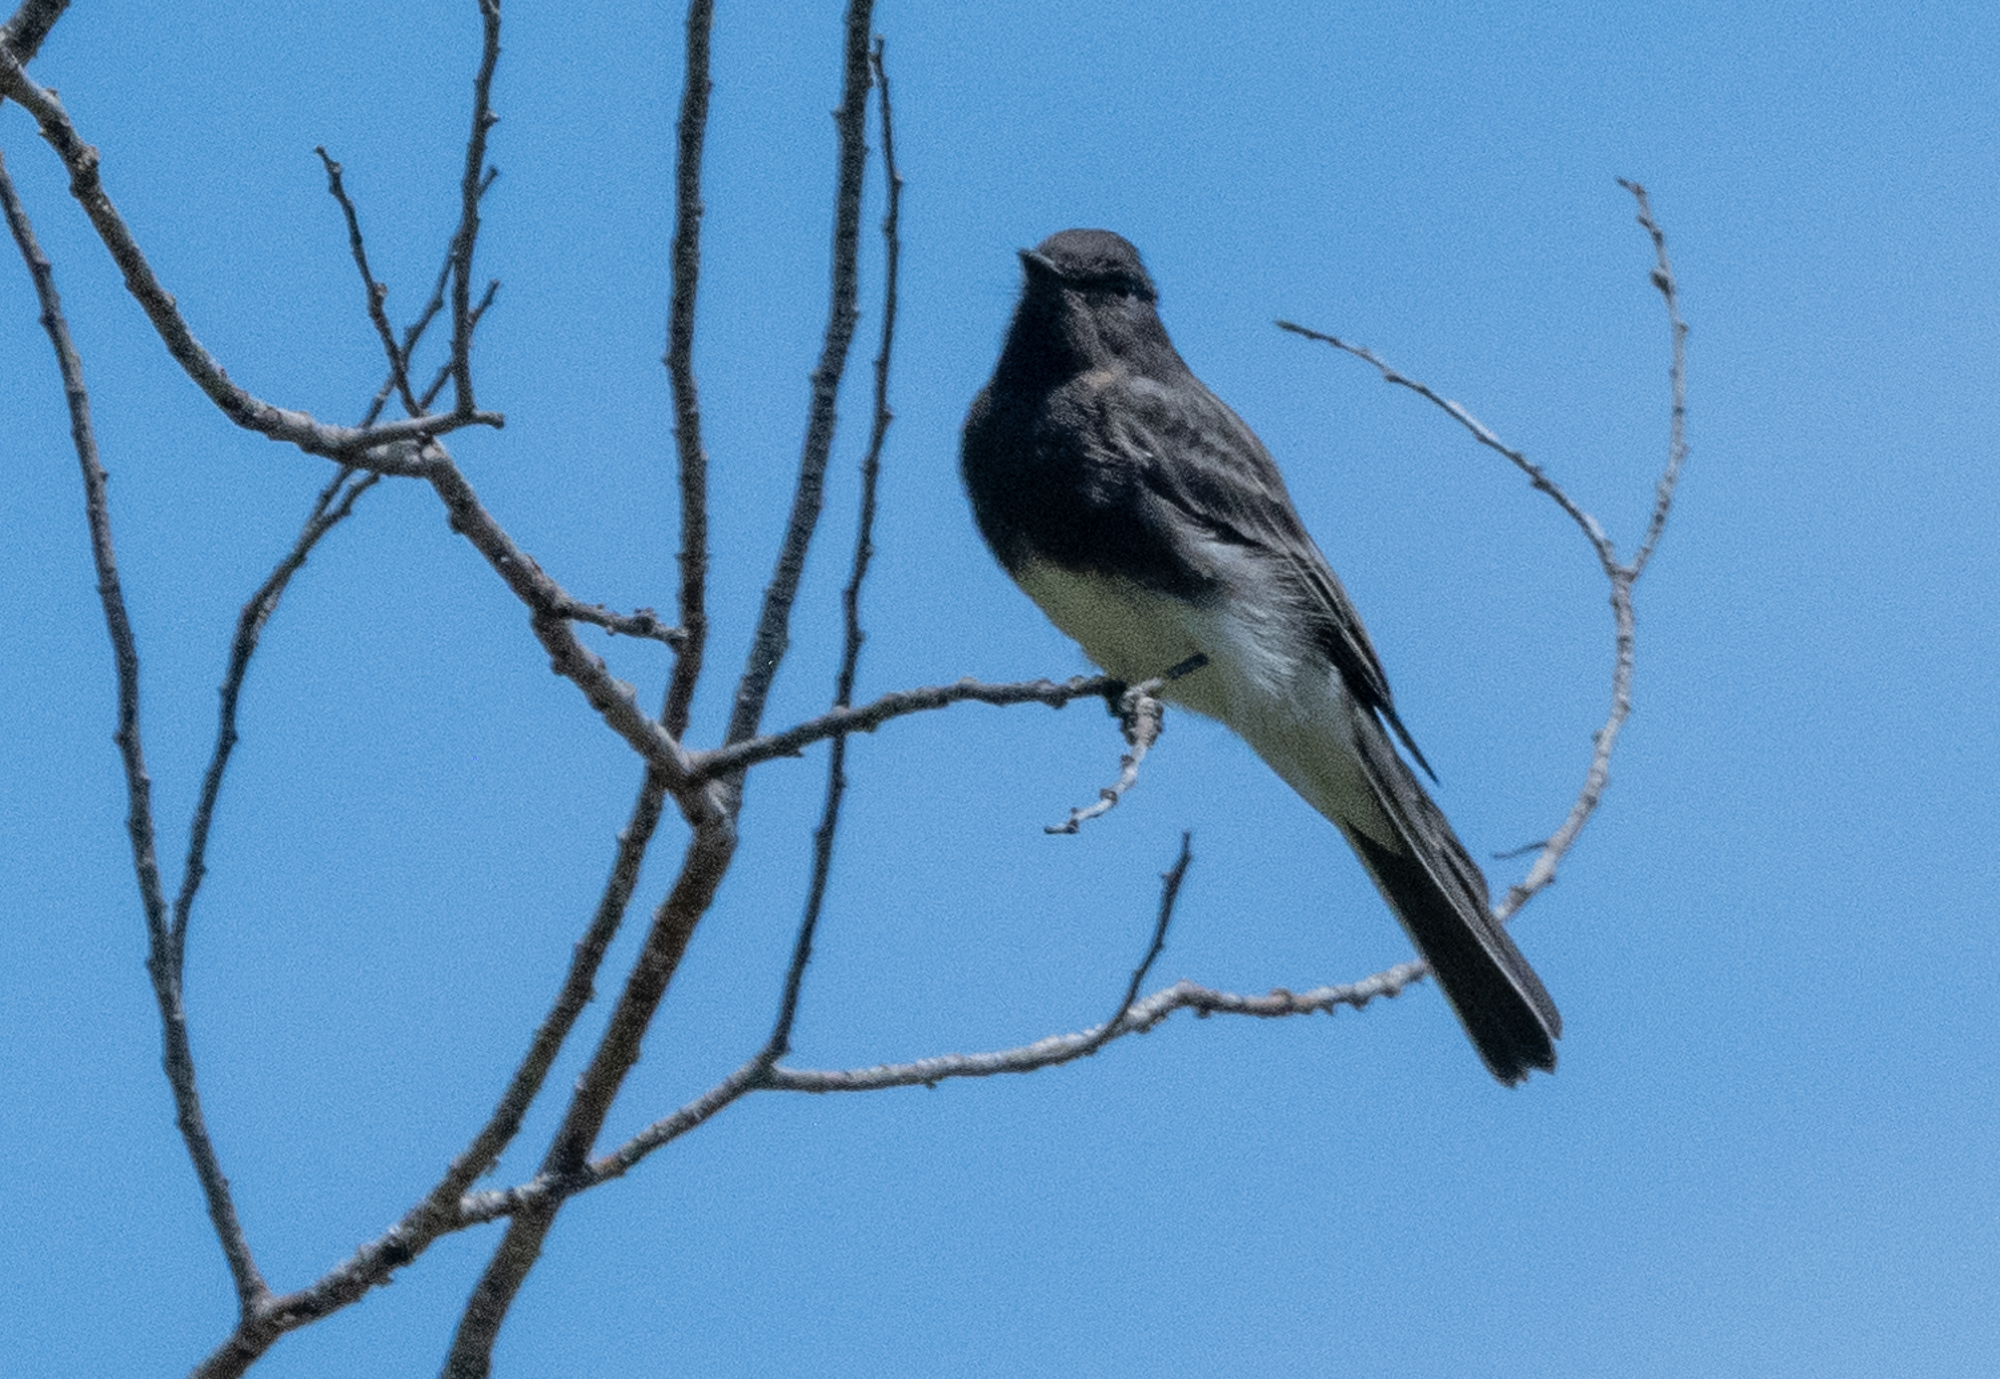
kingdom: Animalia
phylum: Chordata
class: Aves
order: Passeriformes
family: Tyrannidae
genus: Sayornis
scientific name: Sayornis nigricans
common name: Black phoebe
